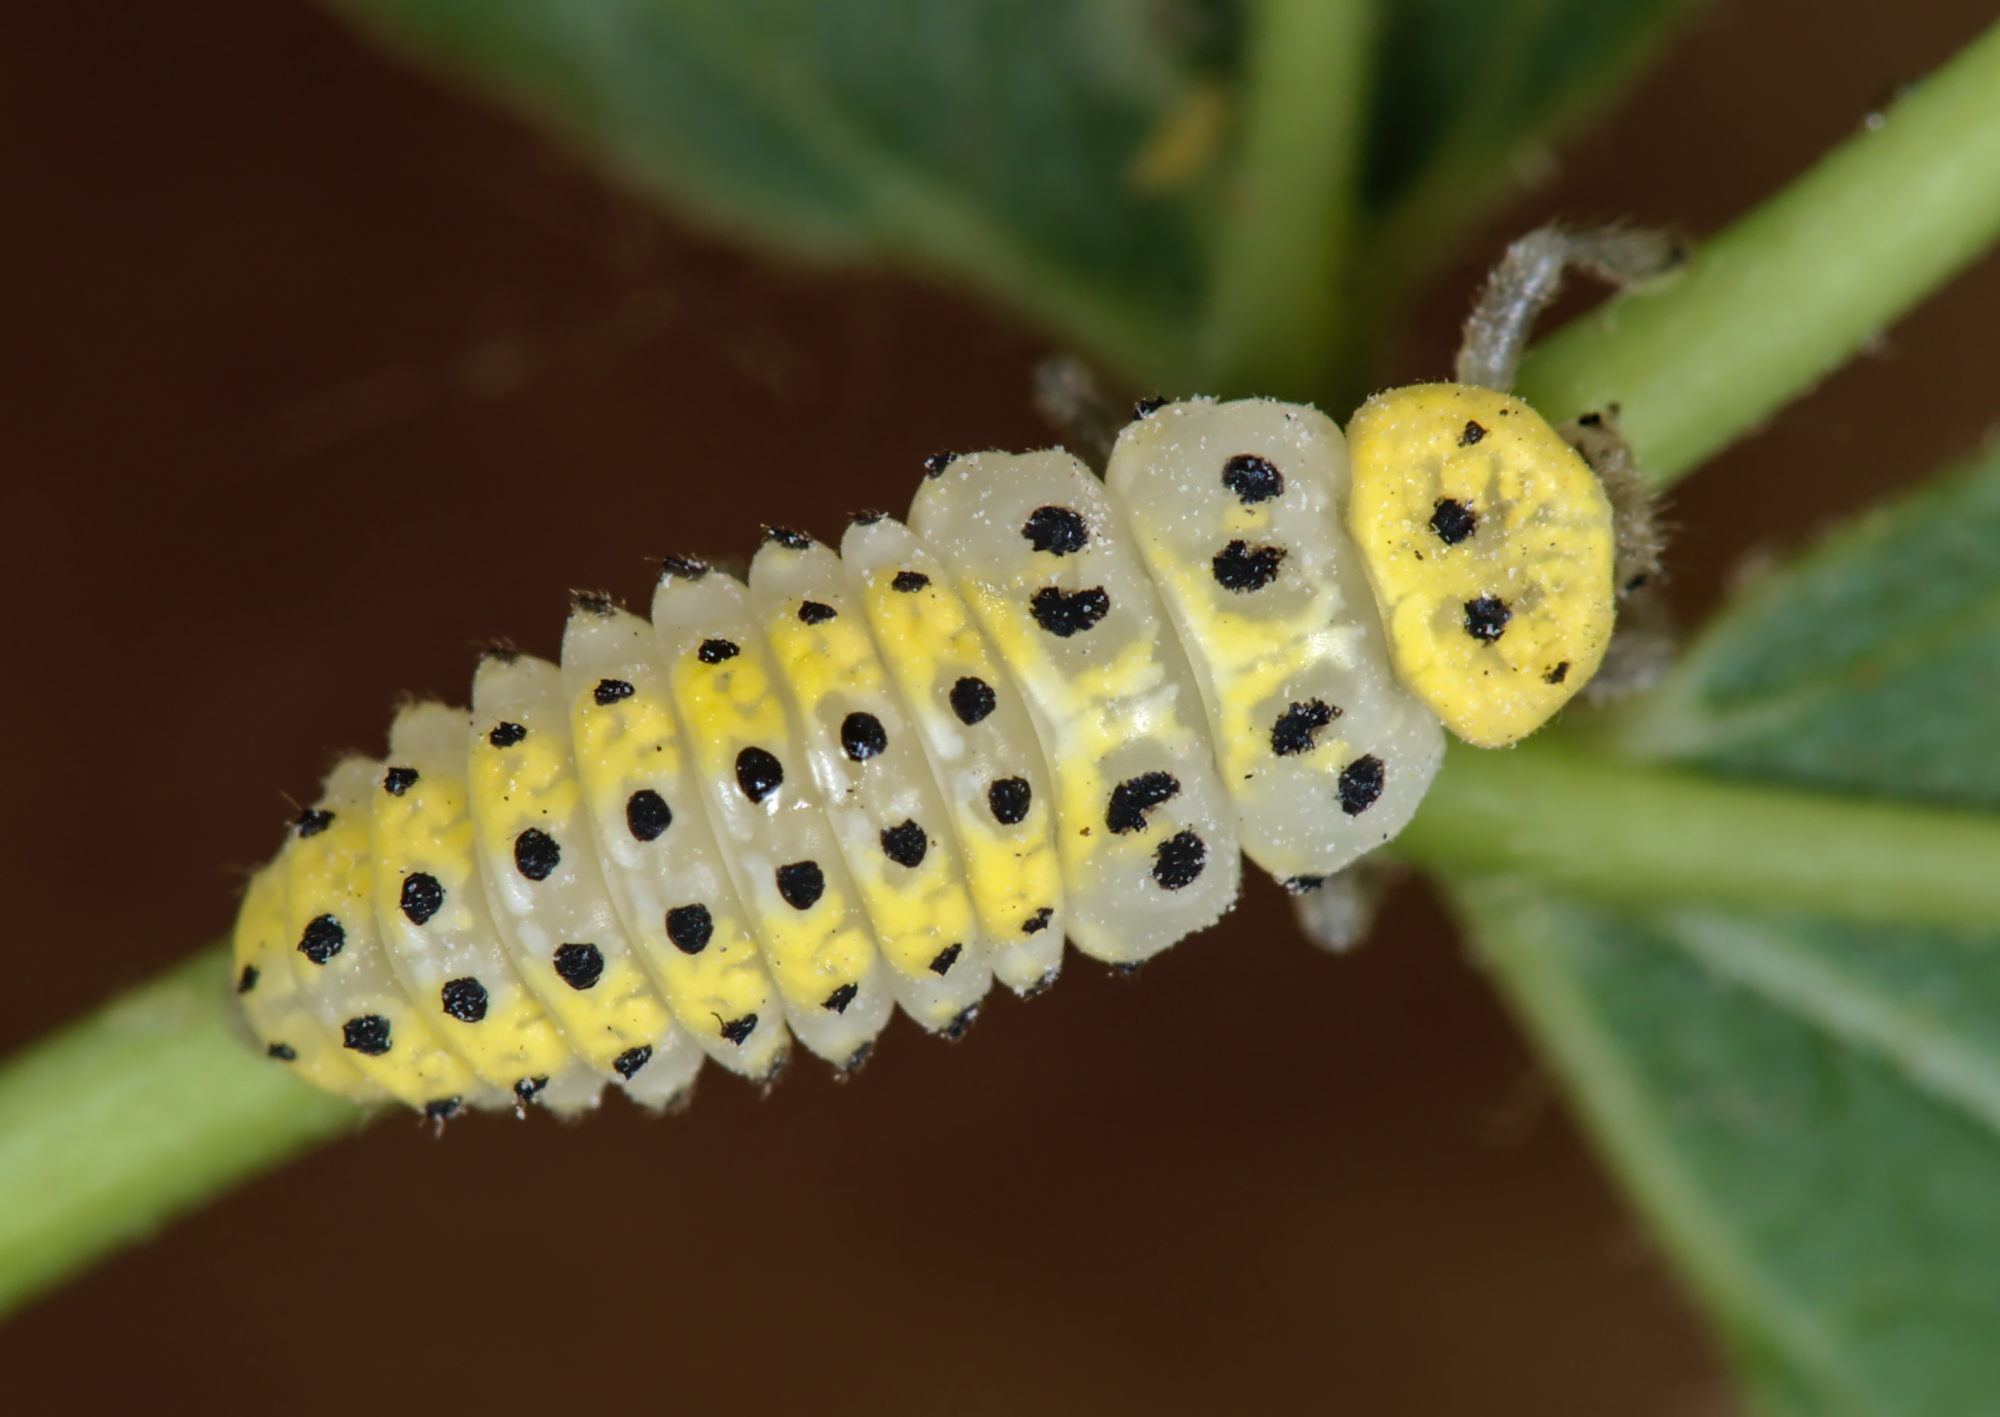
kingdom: Animalia
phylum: Arthropoda
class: Insecta
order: Coleoptera
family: Coccinellidae
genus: Halyzia
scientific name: Halyzia sedecimguttata
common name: Orange ladybird
